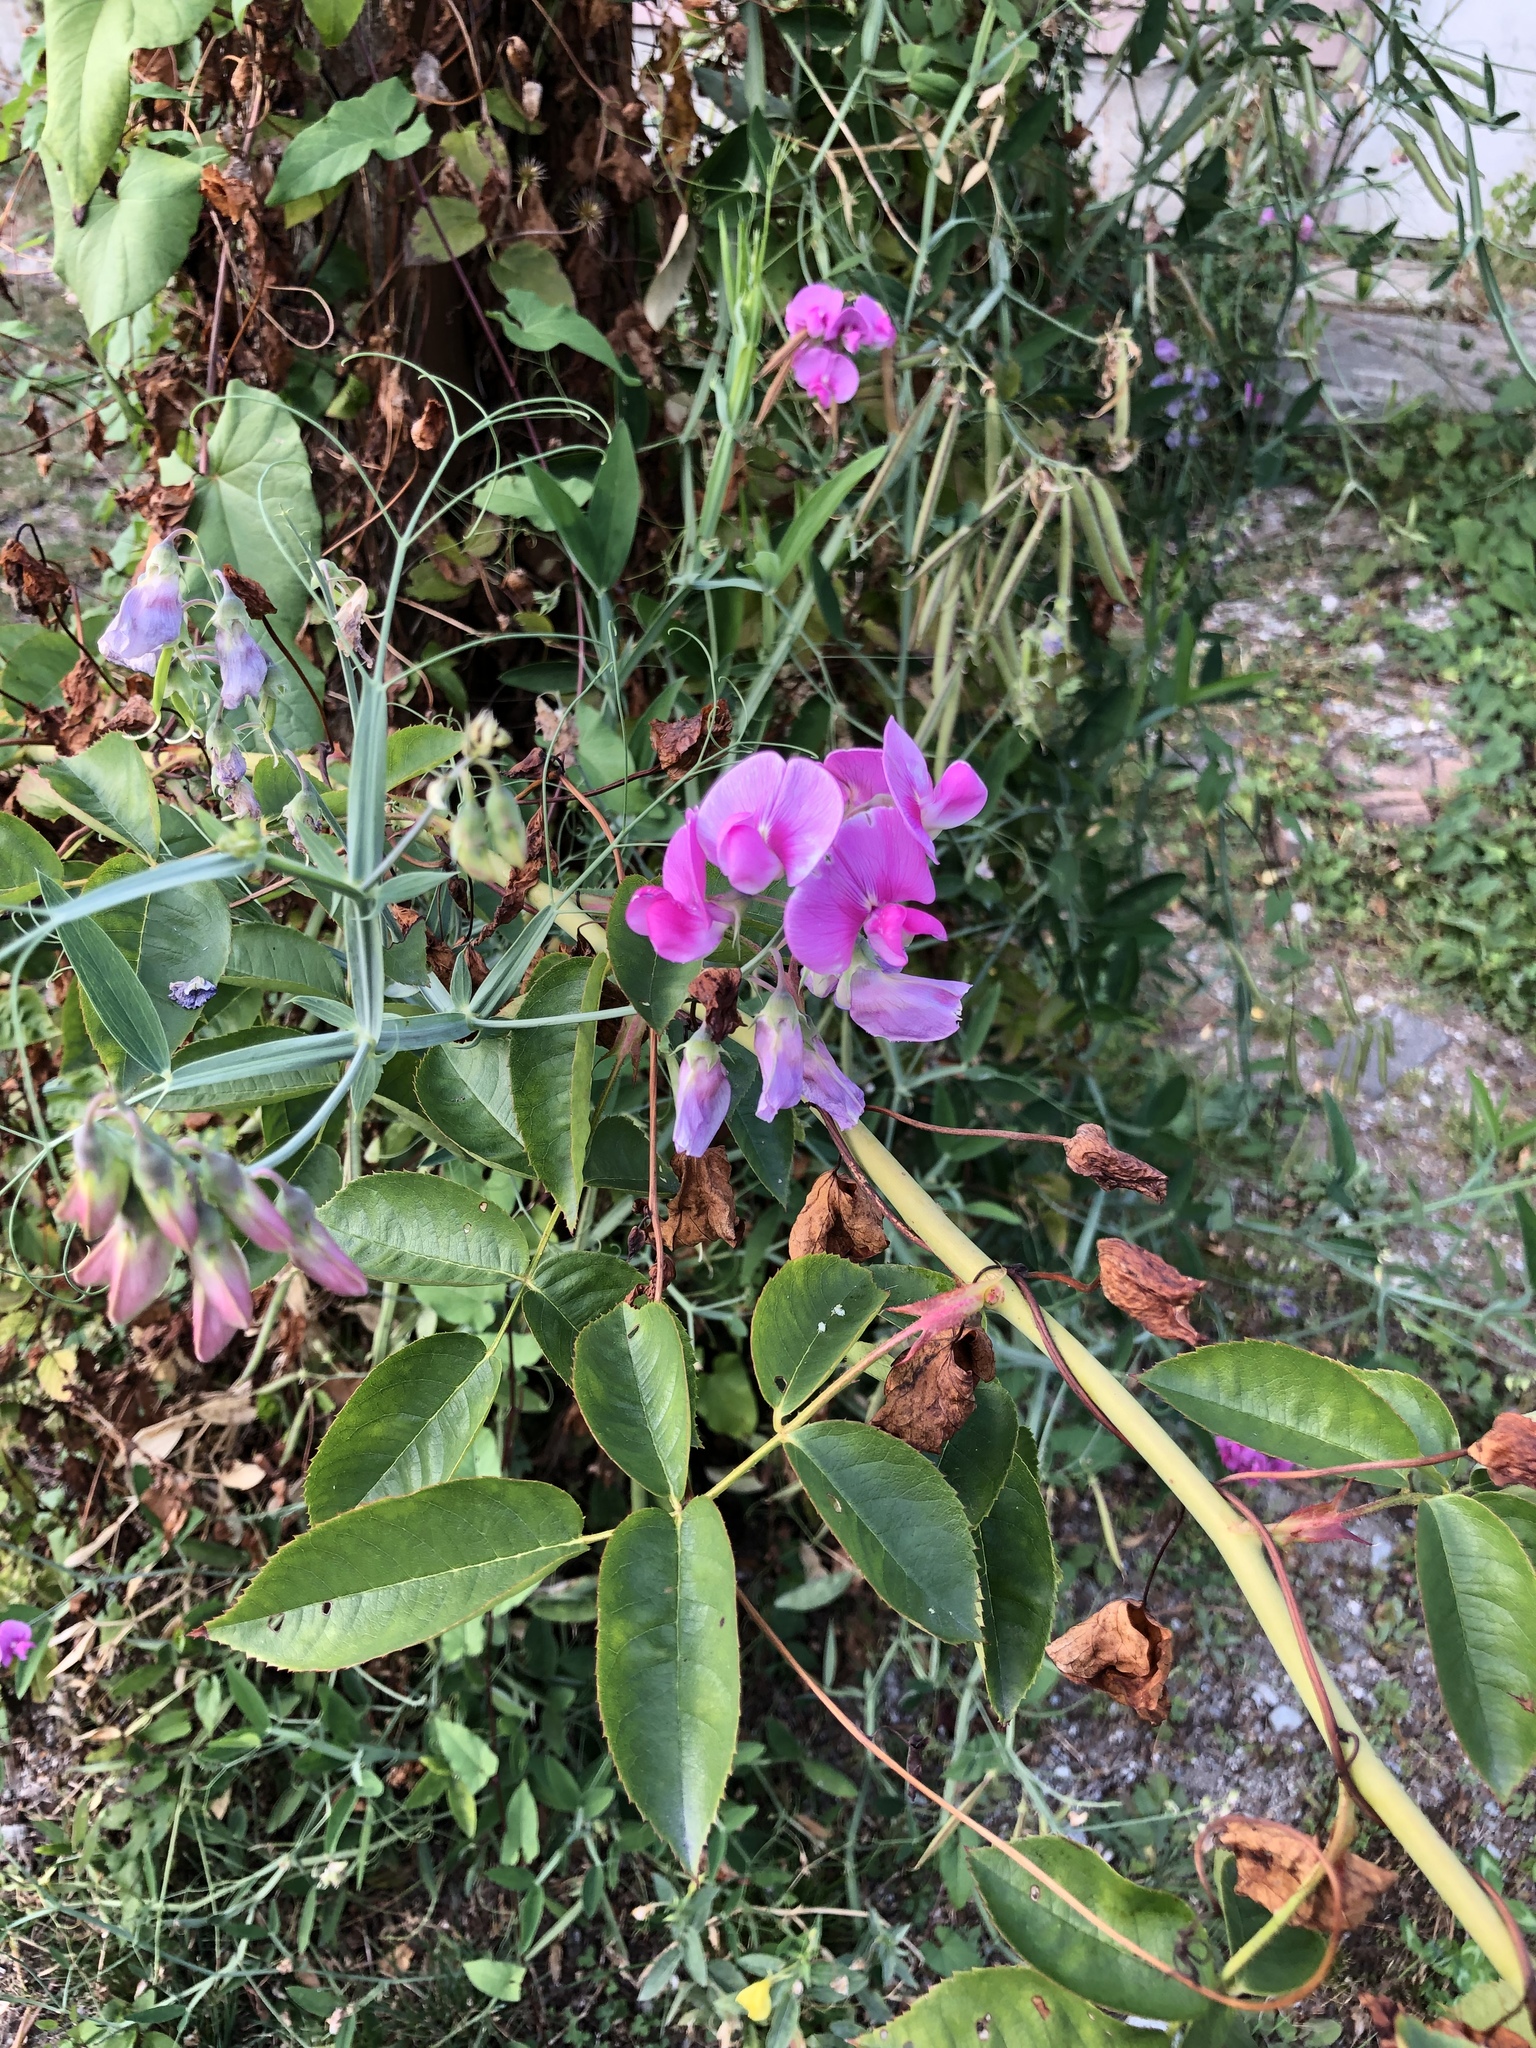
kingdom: Plantae
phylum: Tracheophyta
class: Magnoliopsida
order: Fabales
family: Fabaceae
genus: Lathyrus
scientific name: Lathyrus latifolius
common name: Perennial pea
